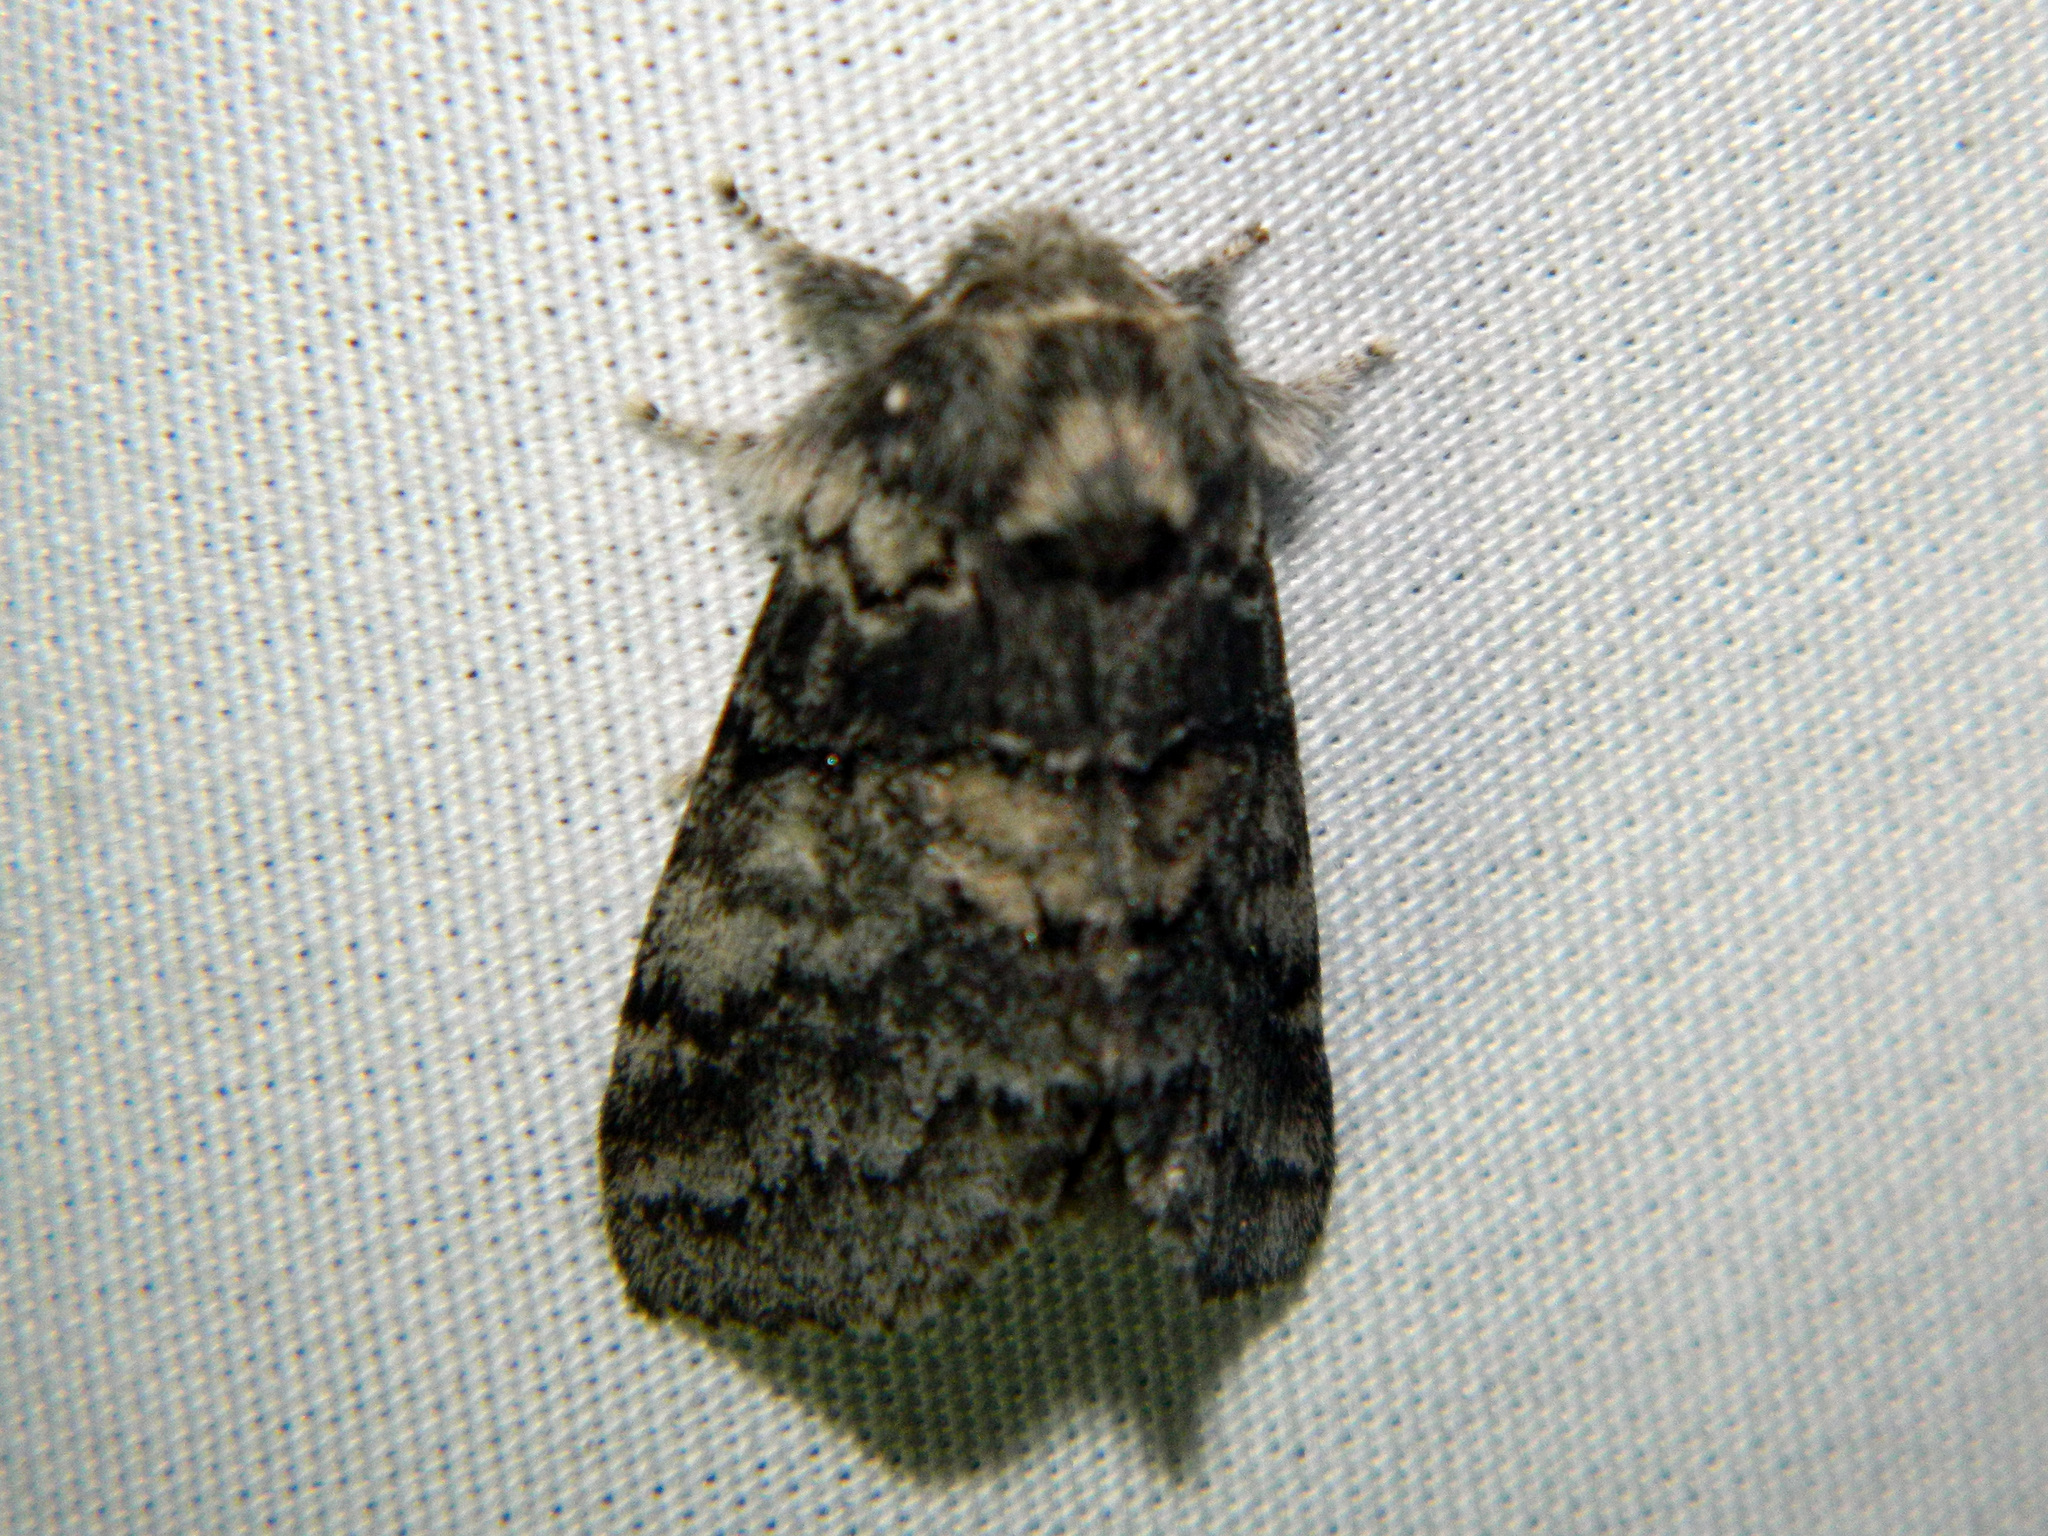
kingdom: Animalia
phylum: Arthropoda
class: Insecta
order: Lepidoptera
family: Notodontidae
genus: Gluphisia
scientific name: Gluphisia septentrionis
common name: Common gluphisia
